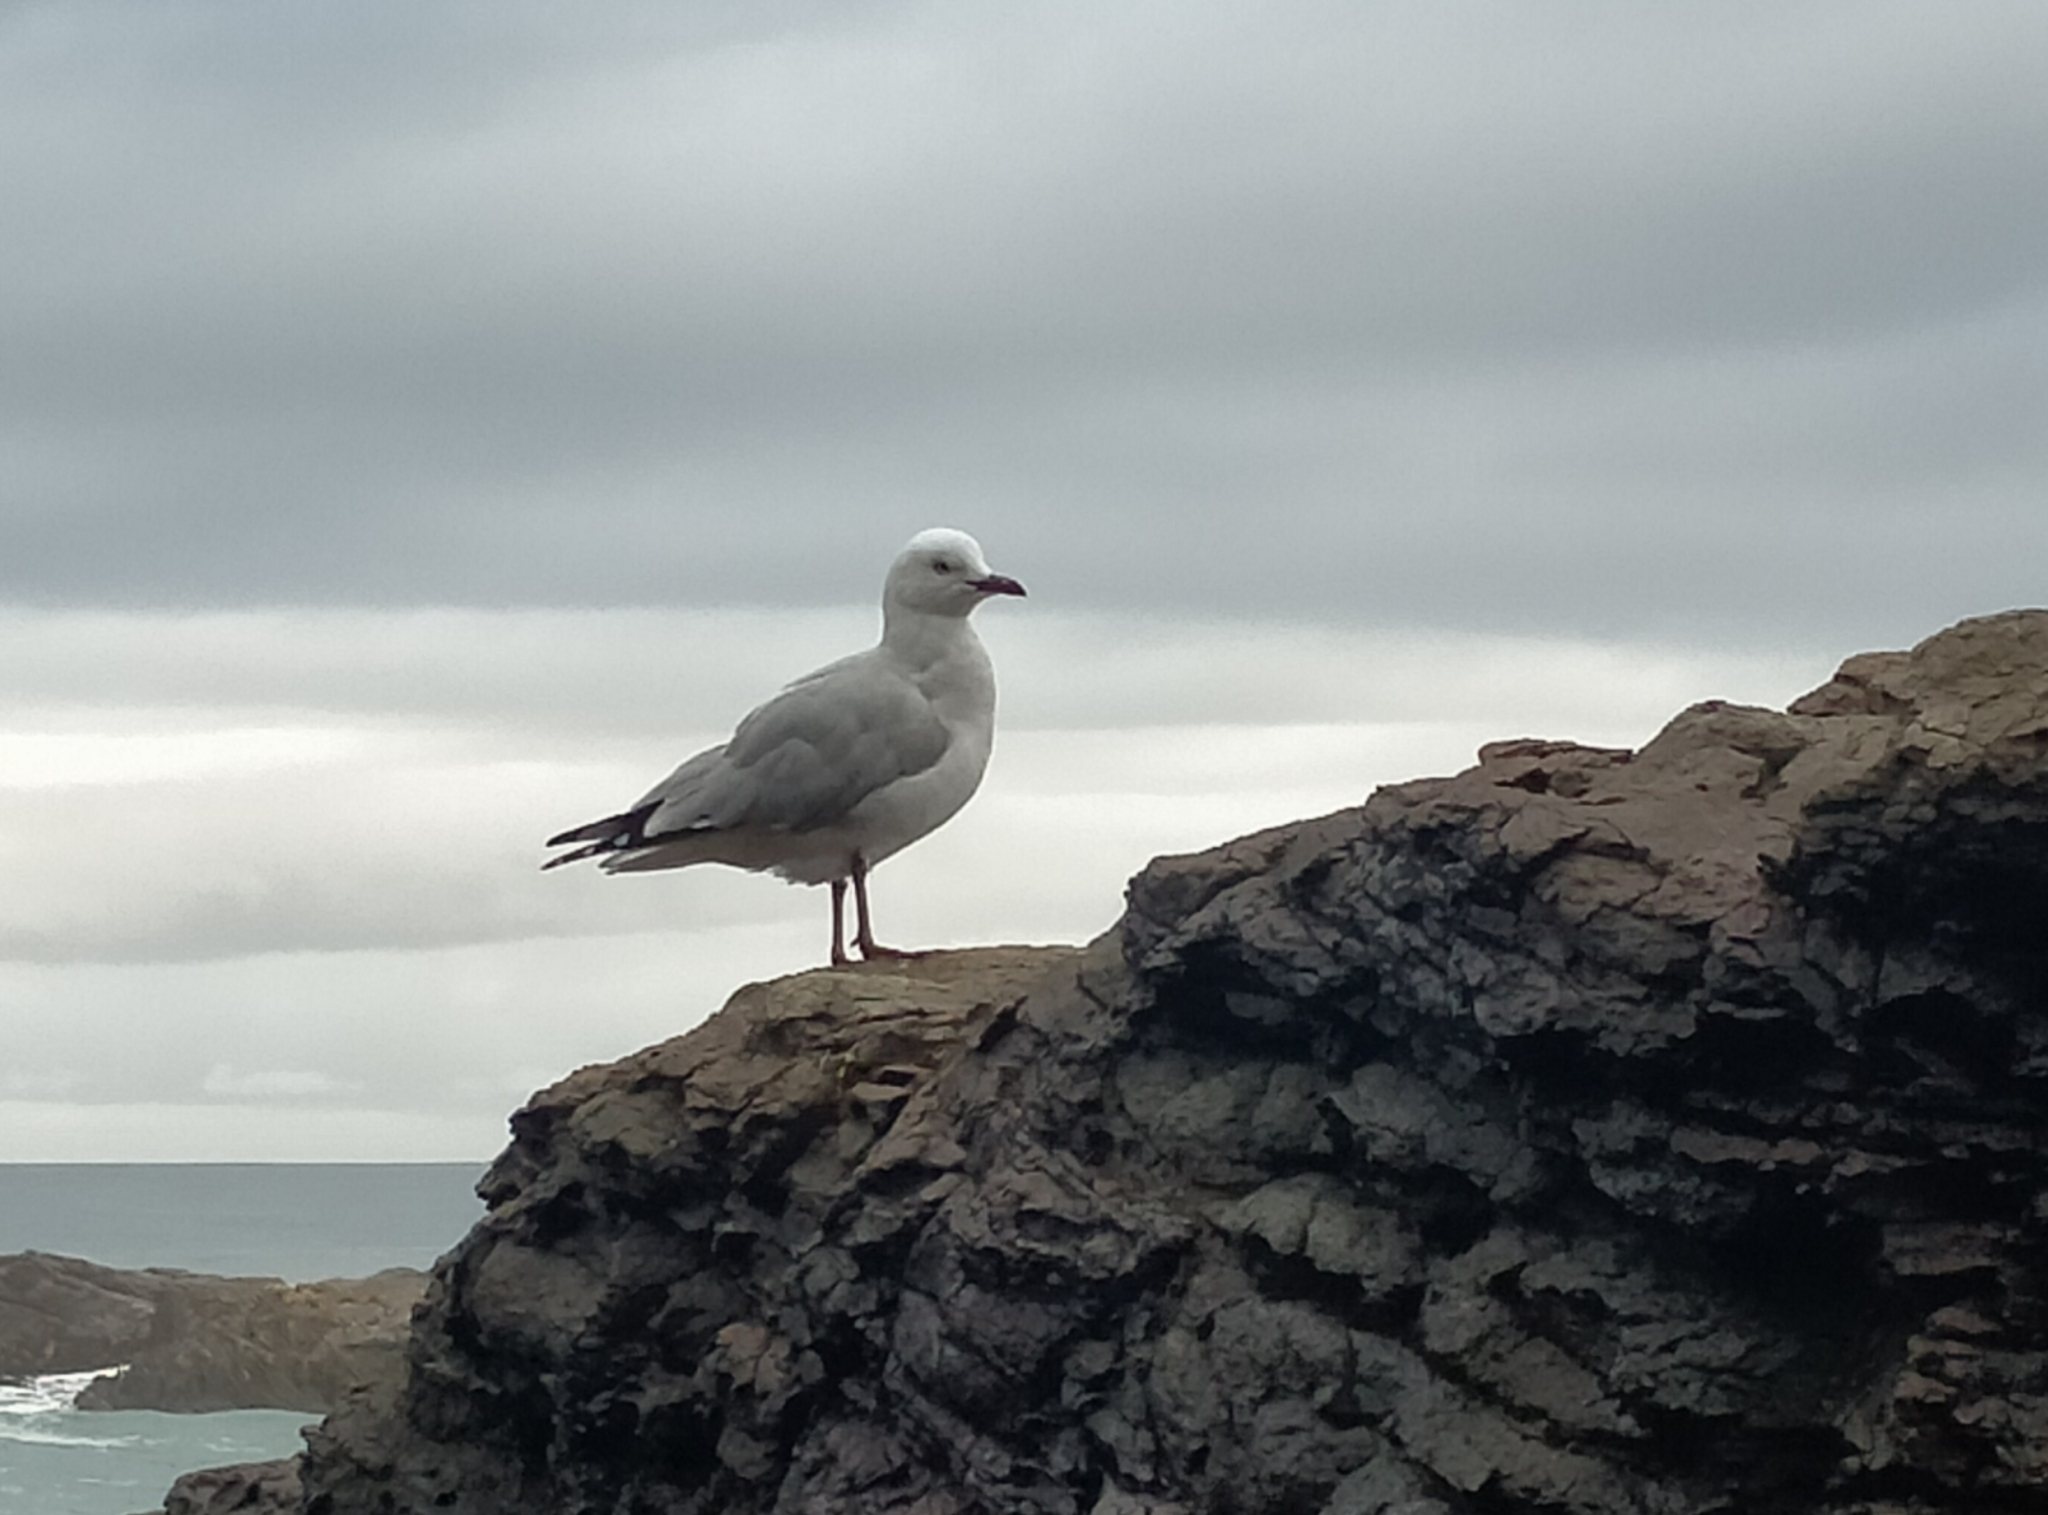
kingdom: Animalia
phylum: Chordata
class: Aves
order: Charadriiformes
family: Laridae
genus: Chroicocephalus
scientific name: Chroicocephalus novaehollandiae
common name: Silver gull
